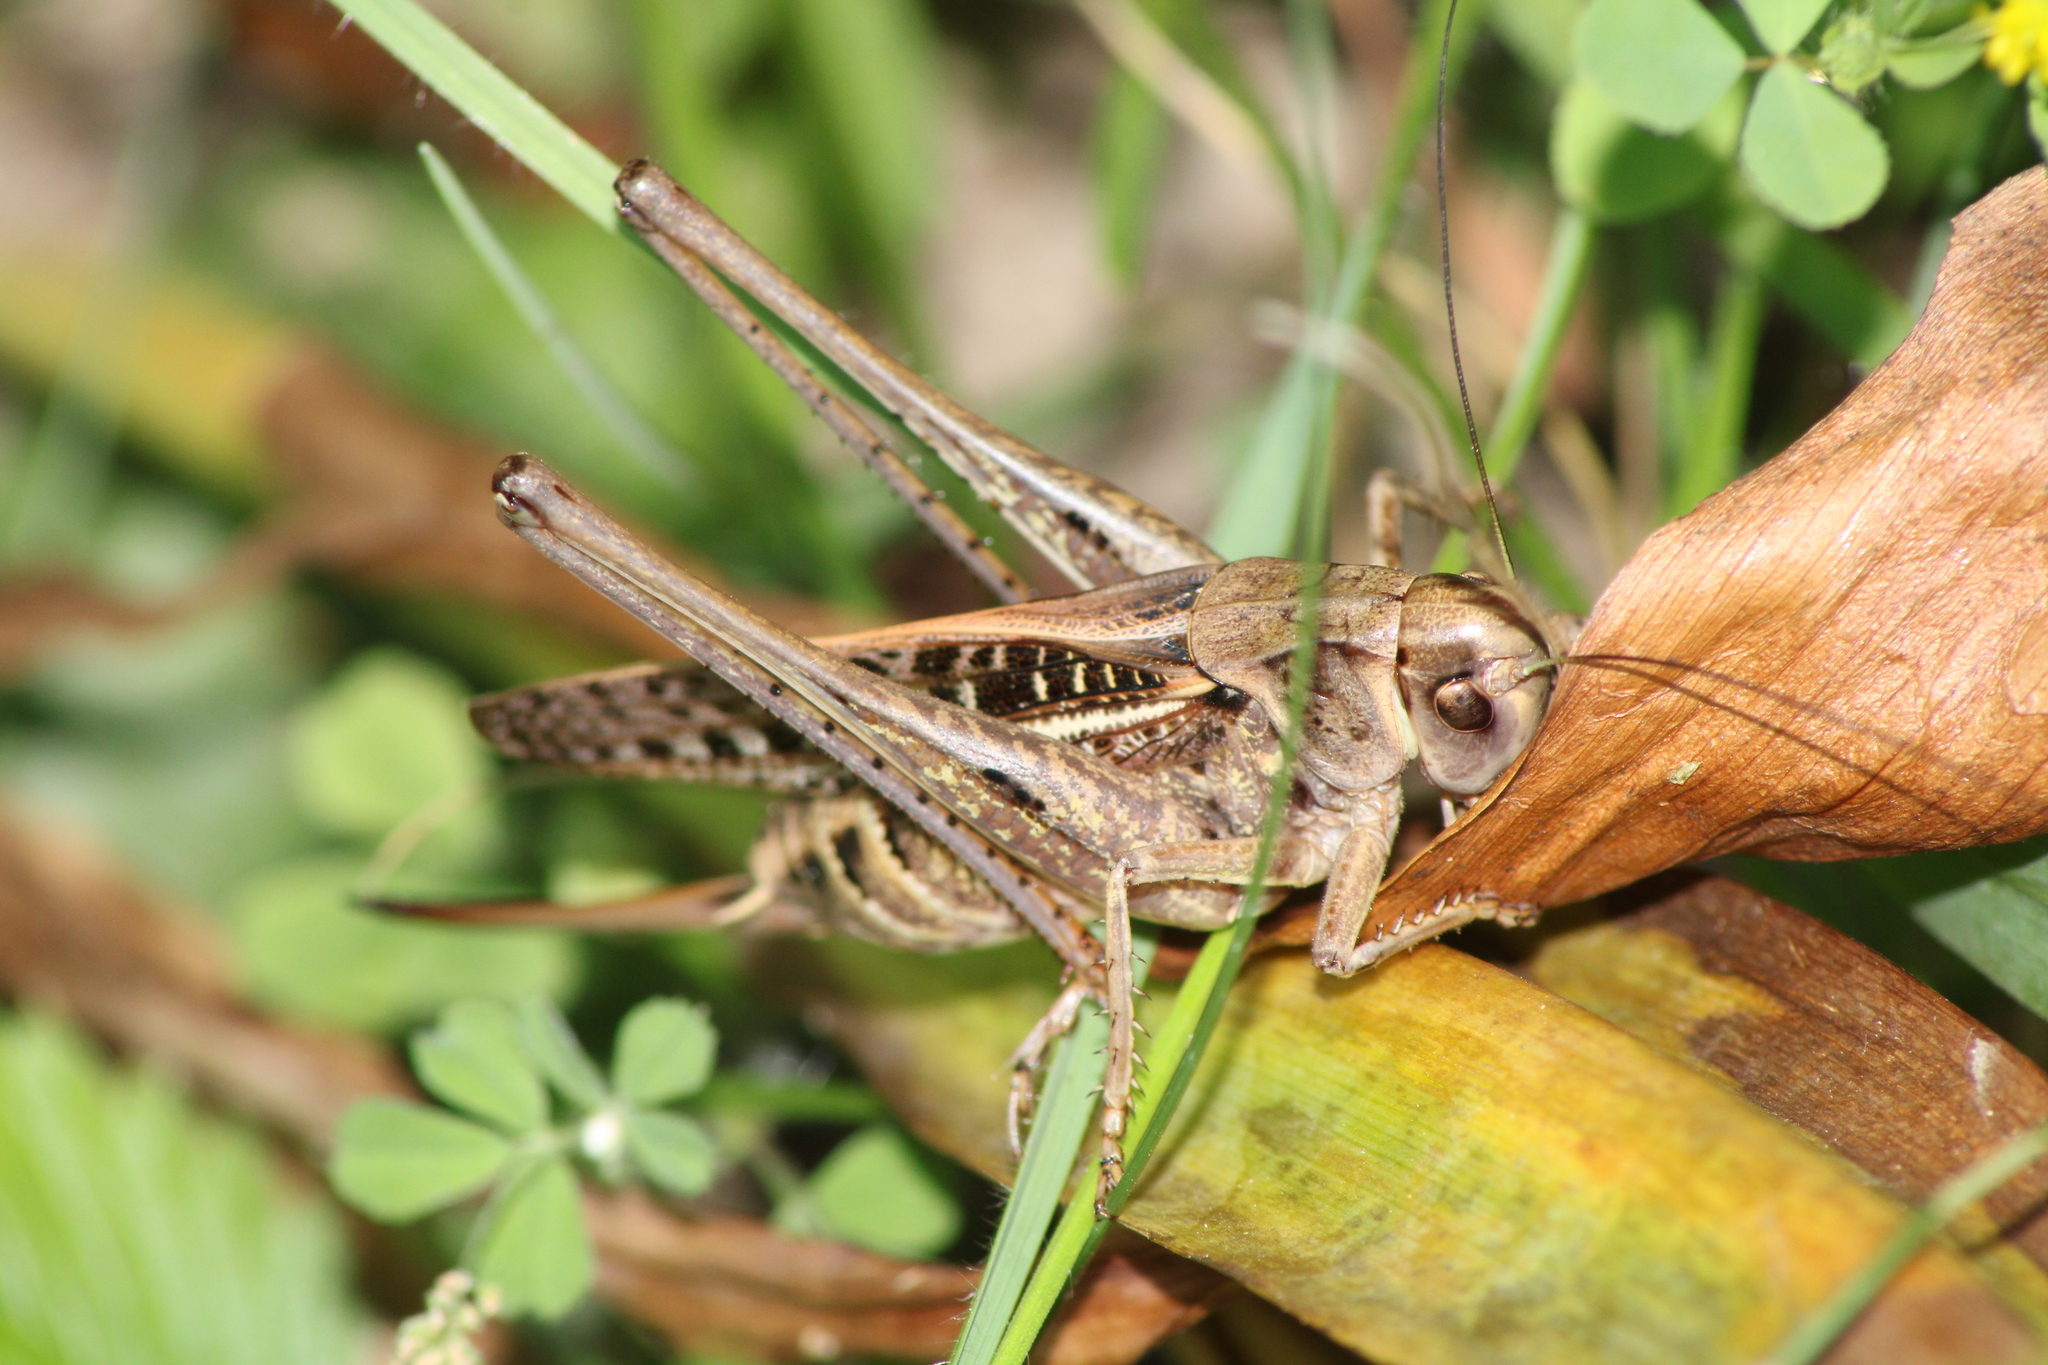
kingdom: Animalia
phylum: Arthropoda
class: Insecta
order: Orthoptera
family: Tettigoniidae
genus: Decticus
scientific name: Decticus verrucivorus
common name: Wart-biter
